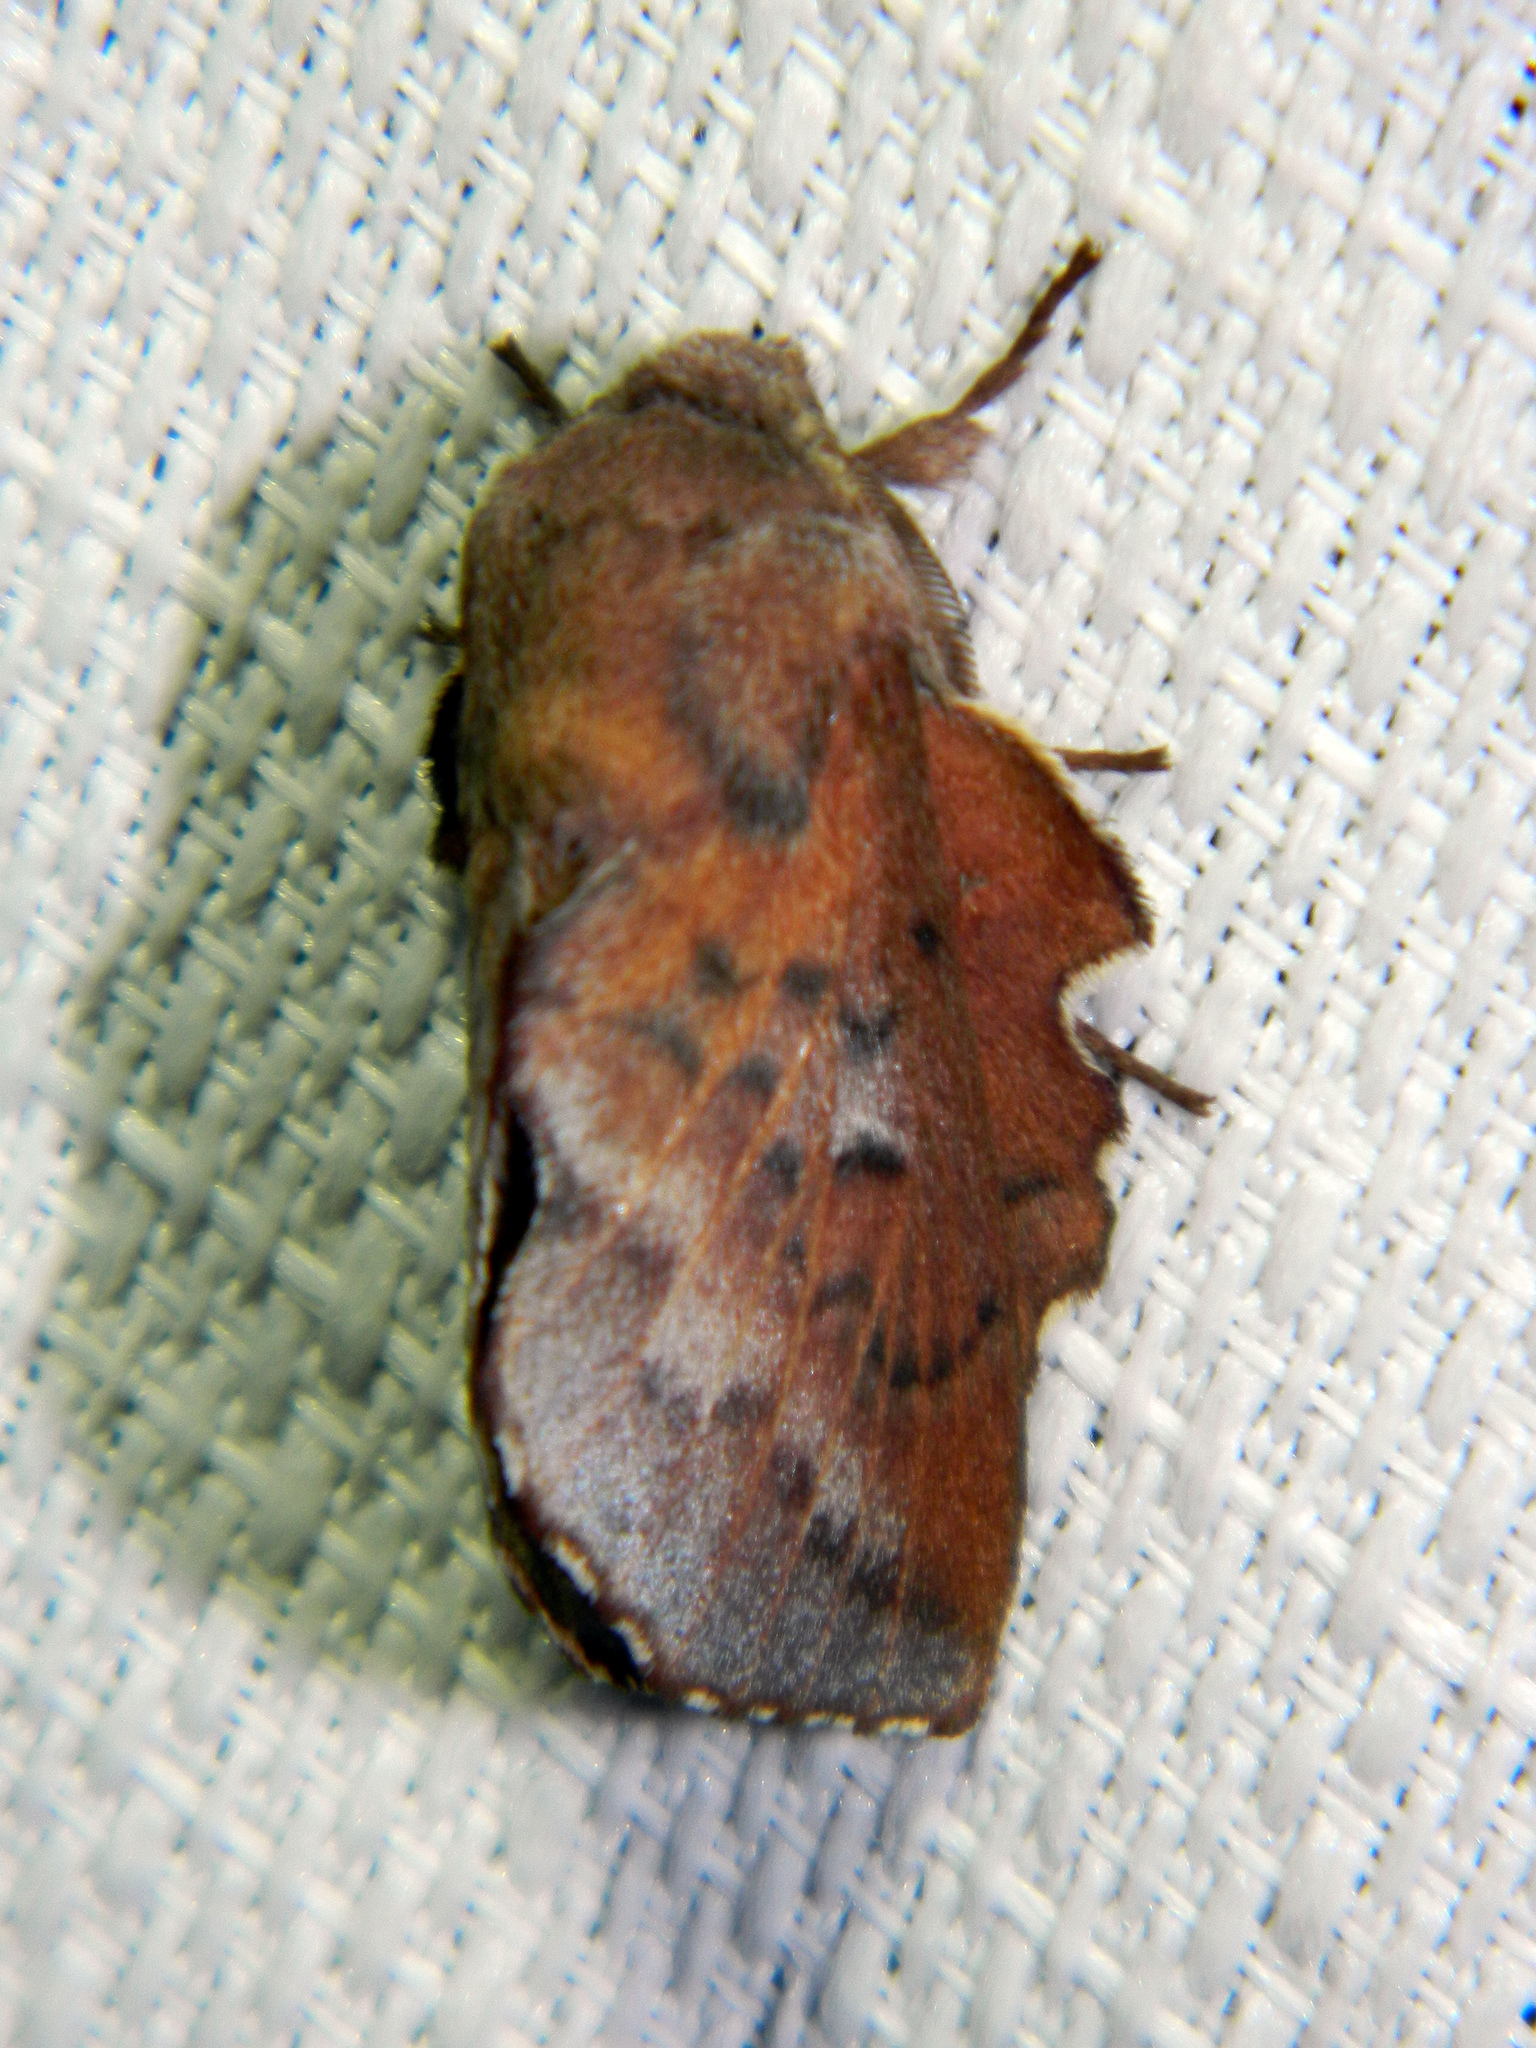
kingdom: Animalia
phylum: Arthropoda
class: Insecta
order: Lepidoptera
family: Lasiocampidae
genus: Phyllodesma
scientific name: Phyllodesma americana
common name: American lappet moth
